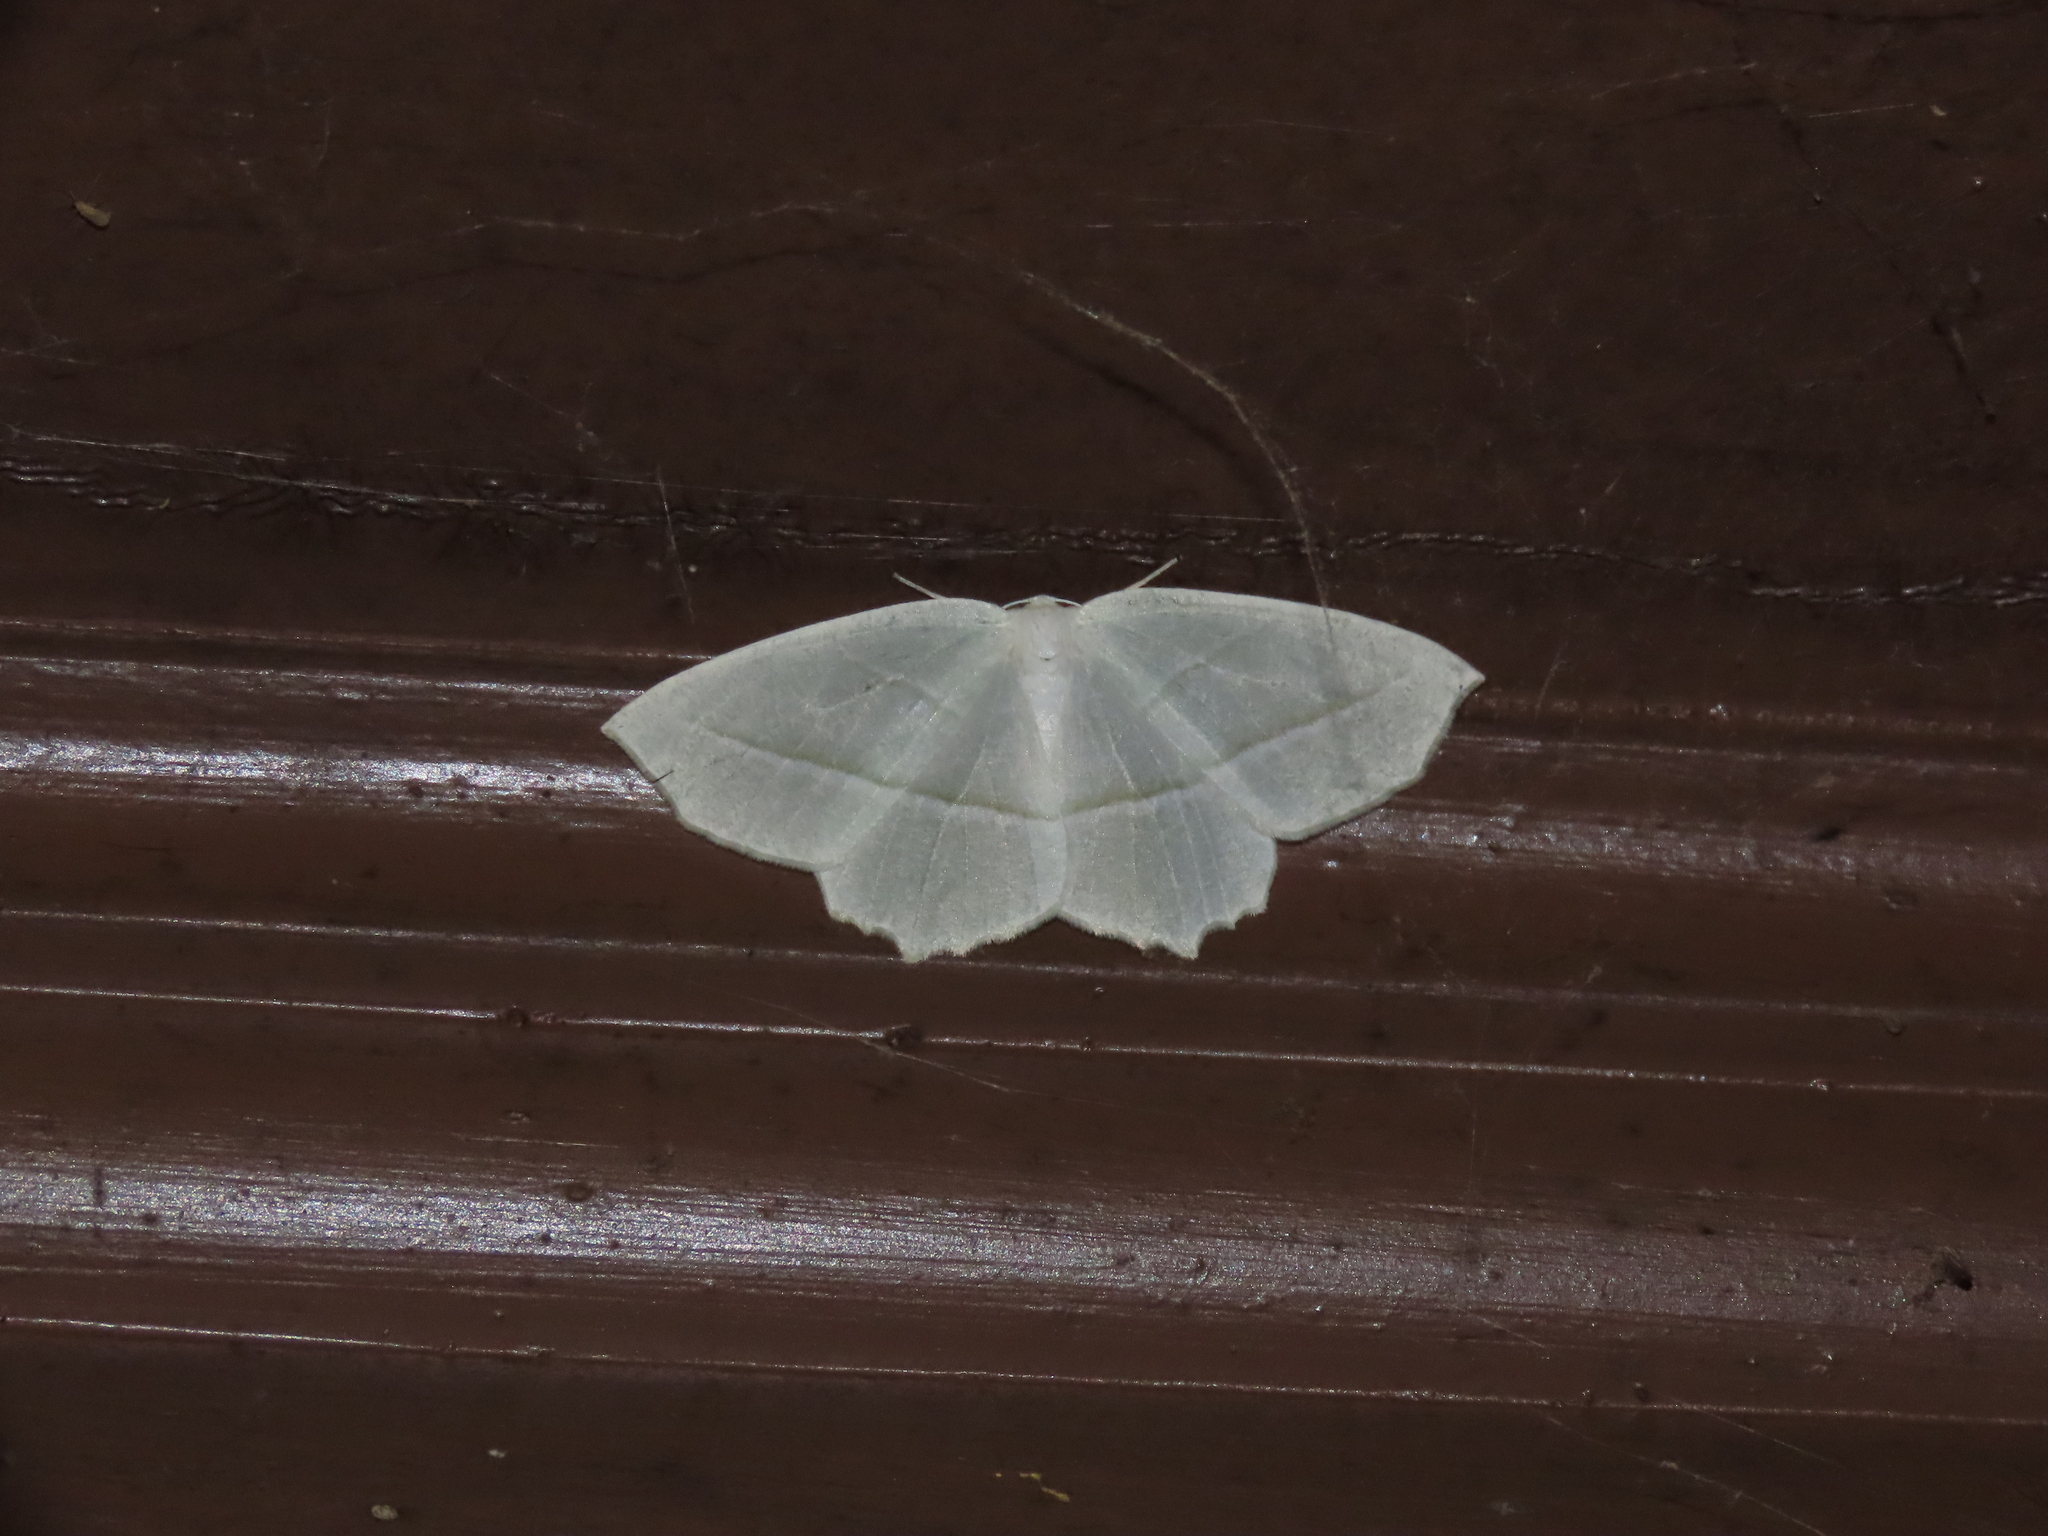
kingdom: Animalia
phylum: Arthropoda
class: Insecta
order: Lepidoptera
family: Geometridae
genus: Campaea
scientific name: Campaea perlata
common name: Fringed looper
